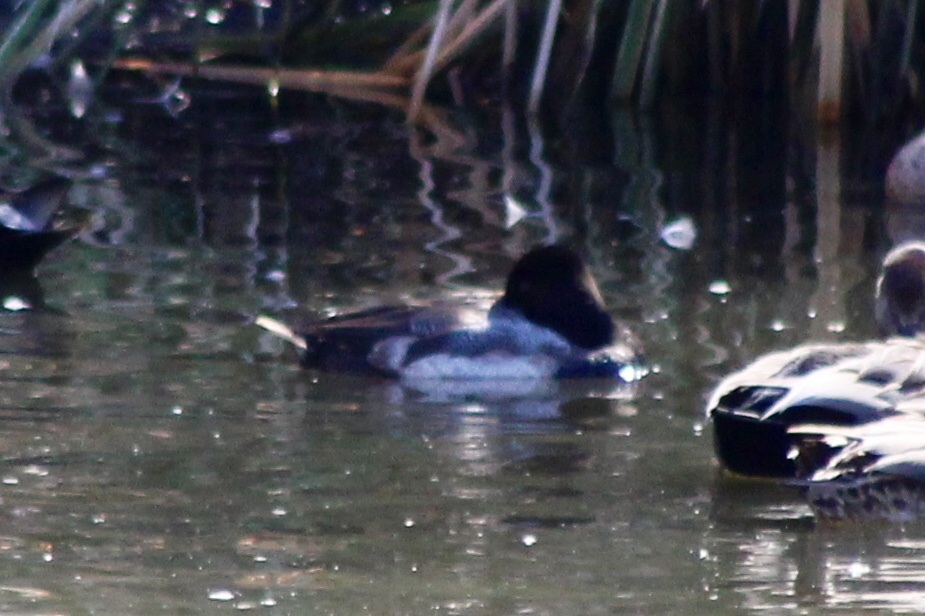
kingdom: Animalia
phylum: Chordata
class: Aves
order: Anseriformes
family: Anatidae
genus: Aythya
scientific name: Aythya affinis
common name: Lesser scaup
